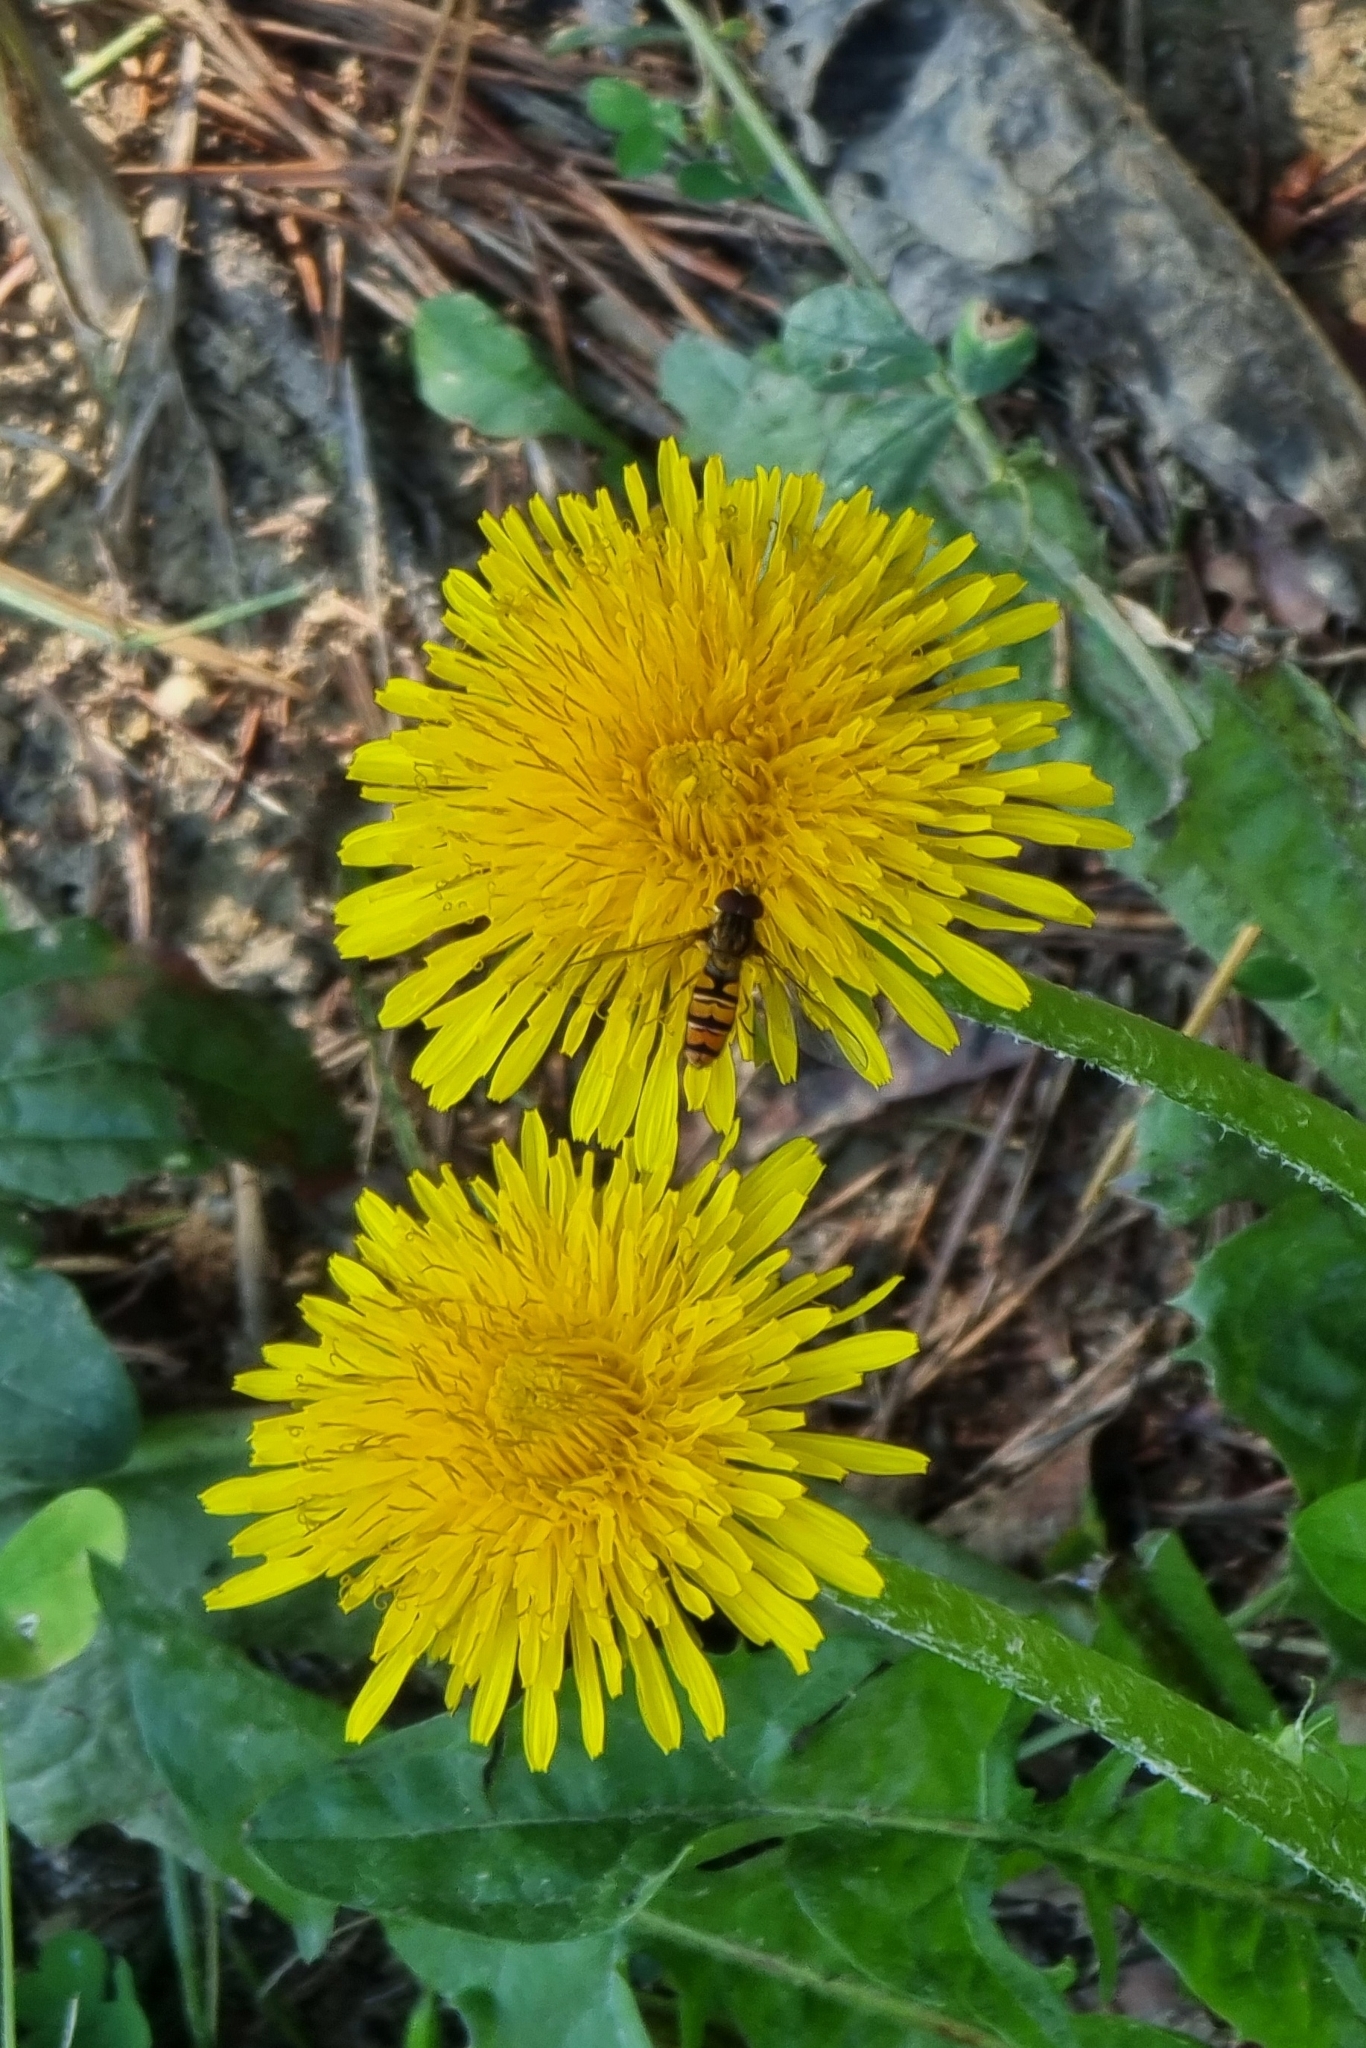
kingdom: Animalia
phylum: Arthropoda
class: Insecta
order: Diptera
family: Syrphidae
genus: Episyrphus
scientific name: Episyrphus balteatus
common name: Marmalade hoverfly
